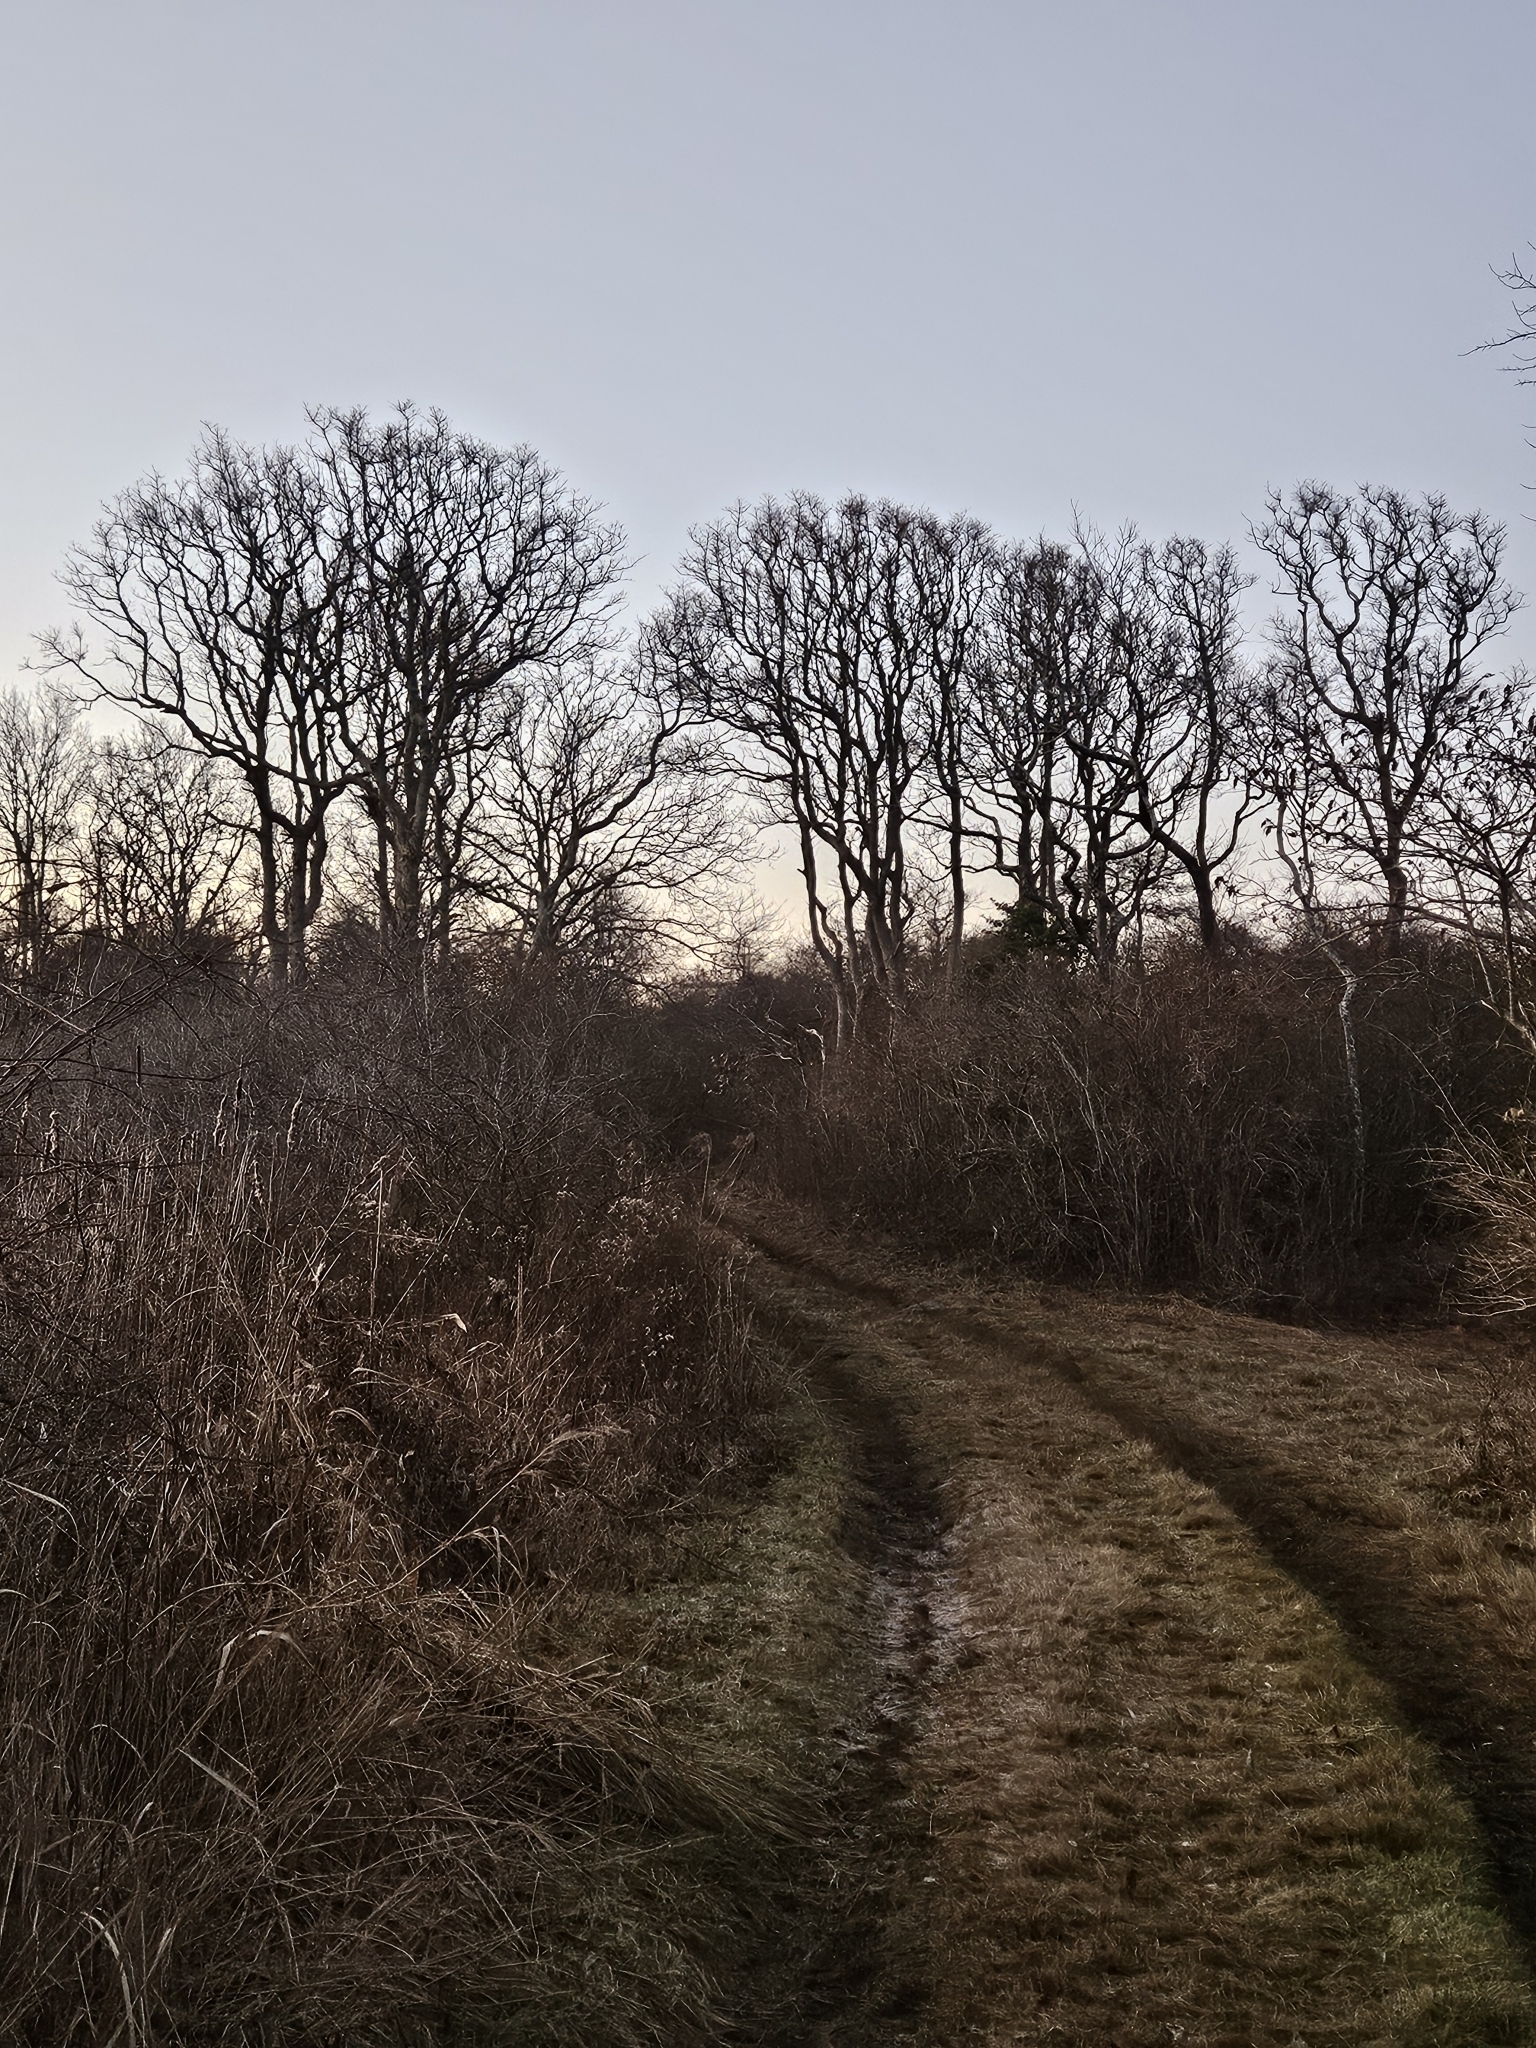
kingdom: Plantae
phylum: Tracheophyta
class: Magnoliopsida
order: Laurales
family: Lauraceae
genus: Sassafras
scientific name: Sassafras albidum
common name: Sassafras
